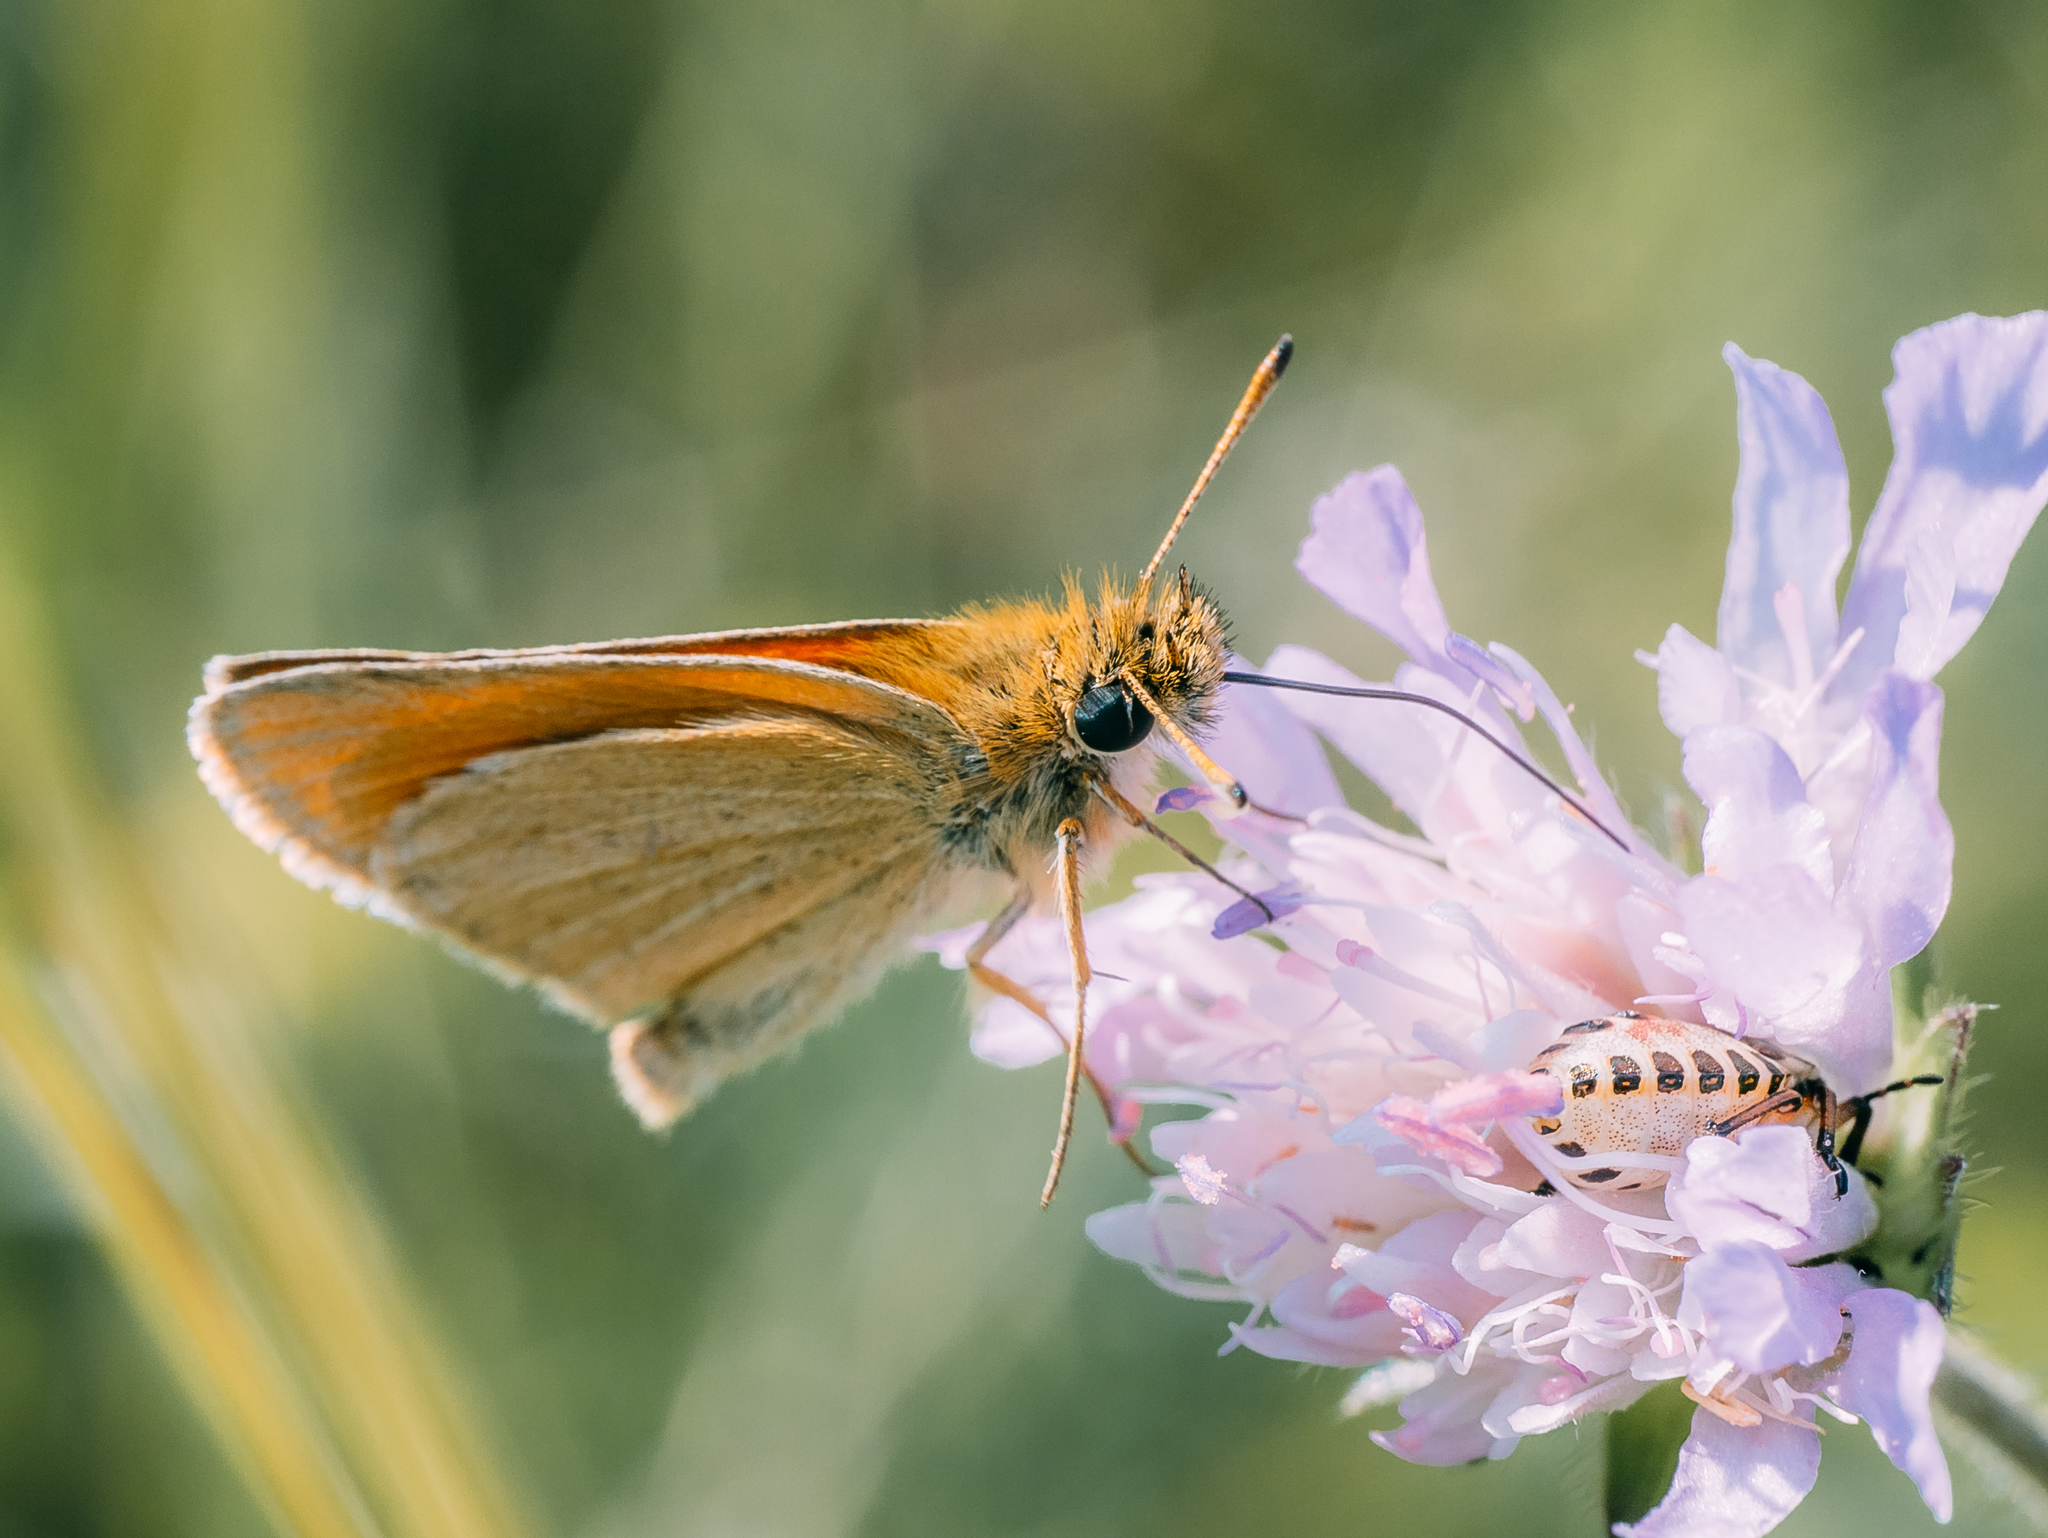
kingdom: Animalia
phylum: Arthropoda
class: Insecta
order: Lepidoptera
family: Hesperiidae
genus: Thymelicus
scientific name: Thymelicus lineola
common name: Essex skipper
